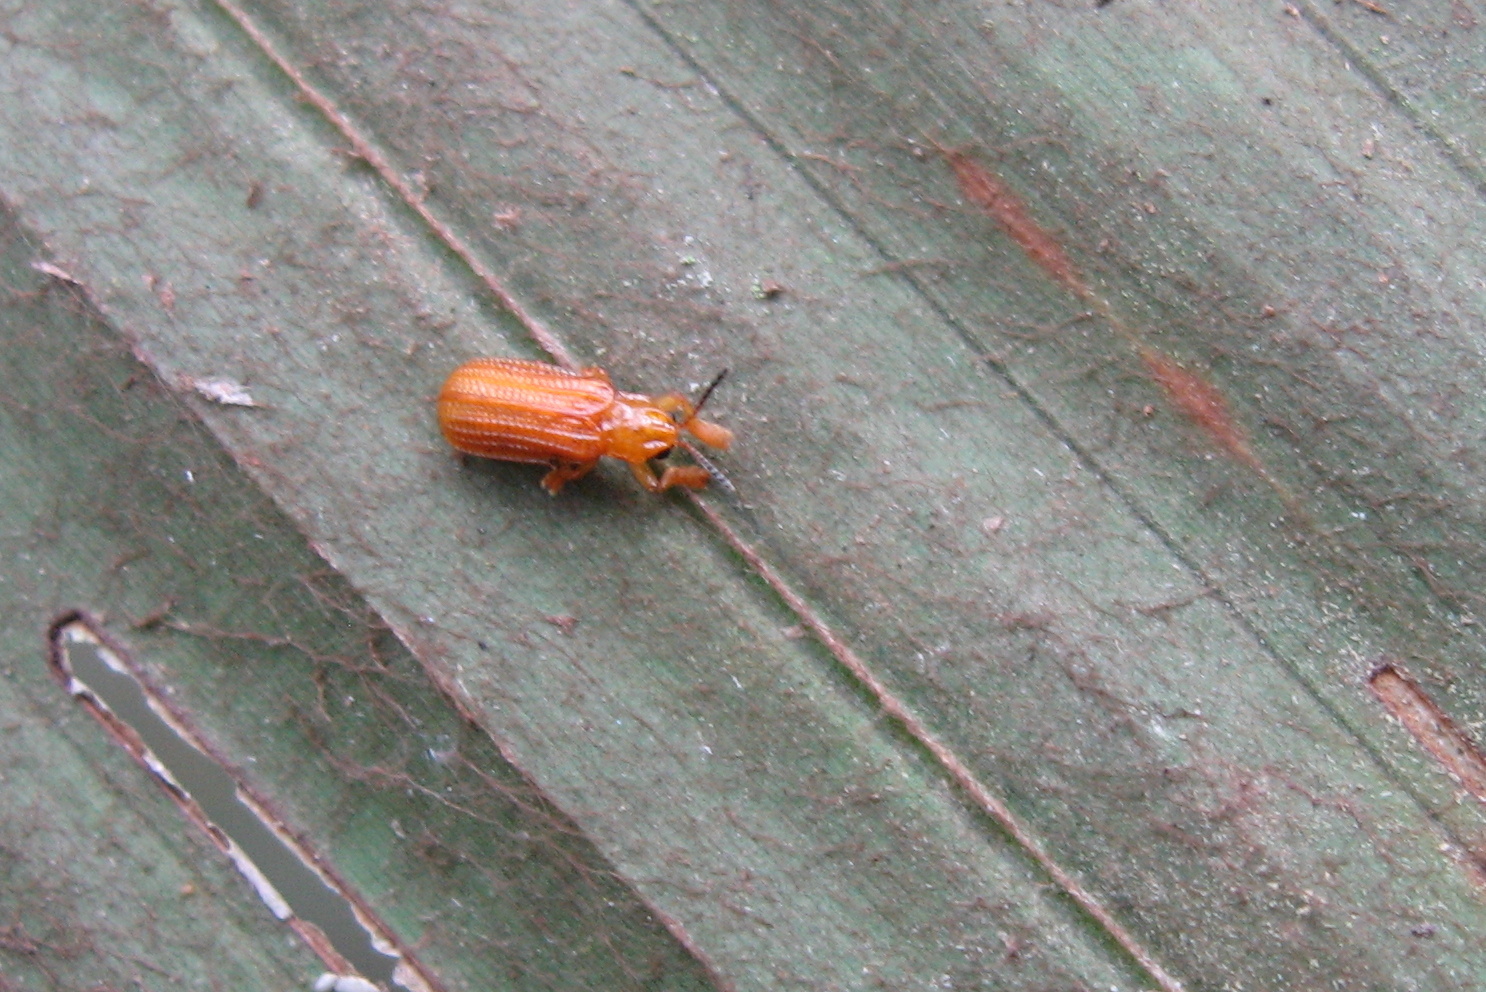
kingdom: Animalia
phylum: Arthropoda
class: Insecta
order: Coleoptera
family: Chrysomelidae
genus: Coelaenomenodera
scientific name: Coelaenomenodera lameensis
